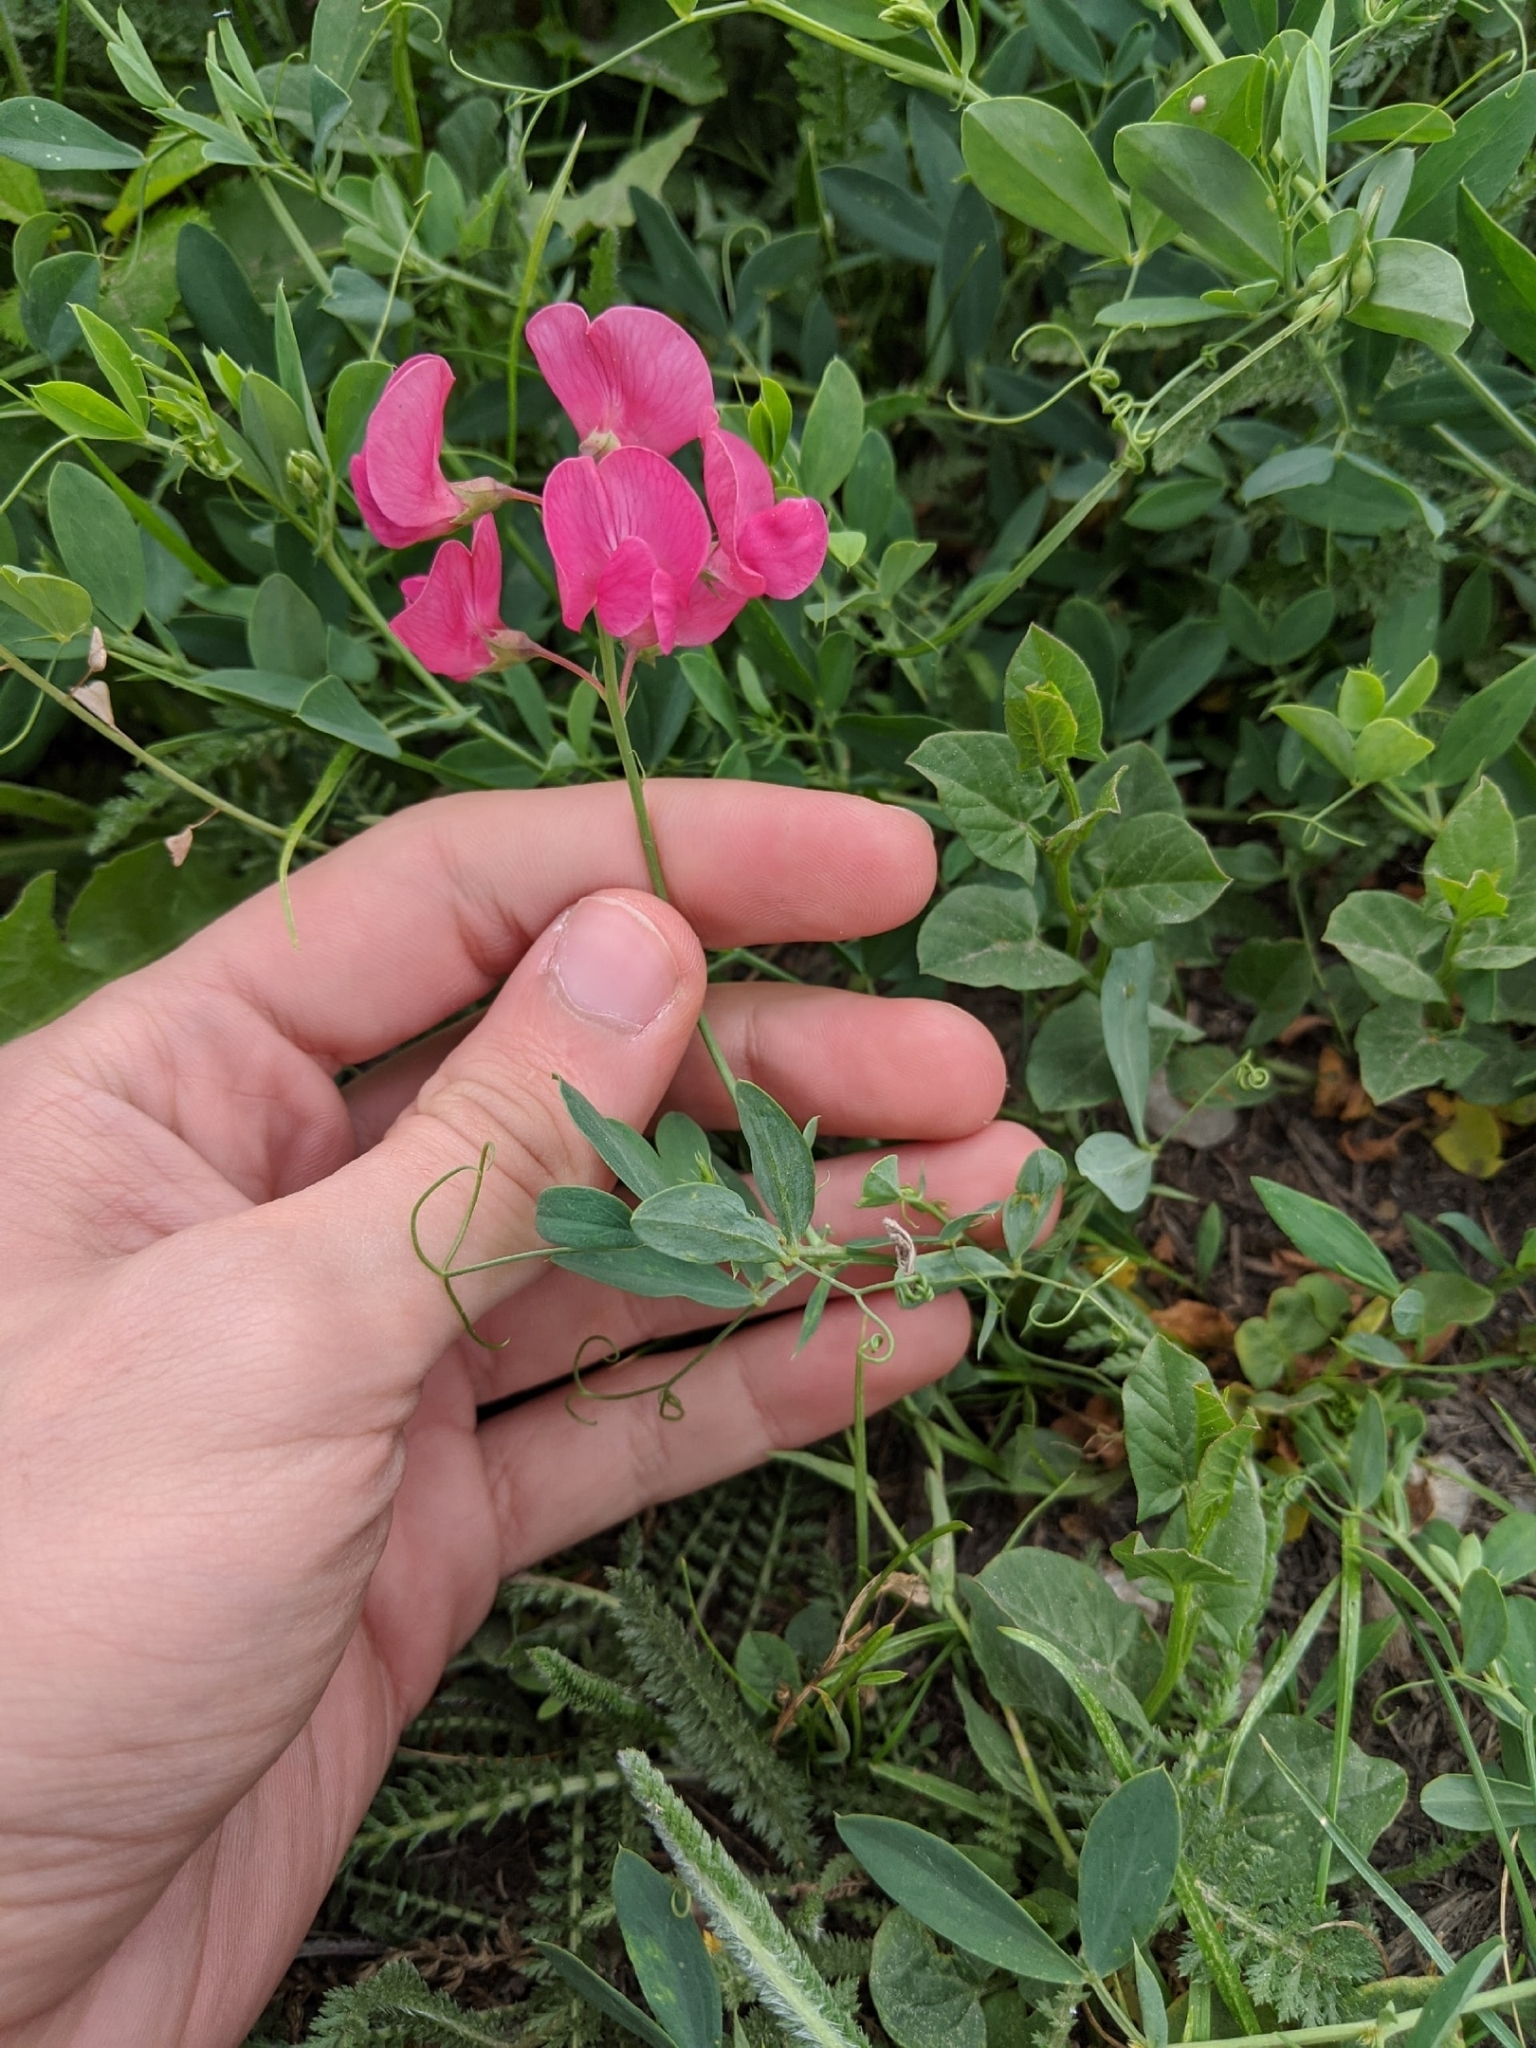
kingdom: Plantae
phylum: Tracheophyta
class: Magnoliopsida
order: Fabales
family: Fabaceae
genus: Lathyrus
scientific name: Lathyrus tuberosus
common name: Tuberous pea
